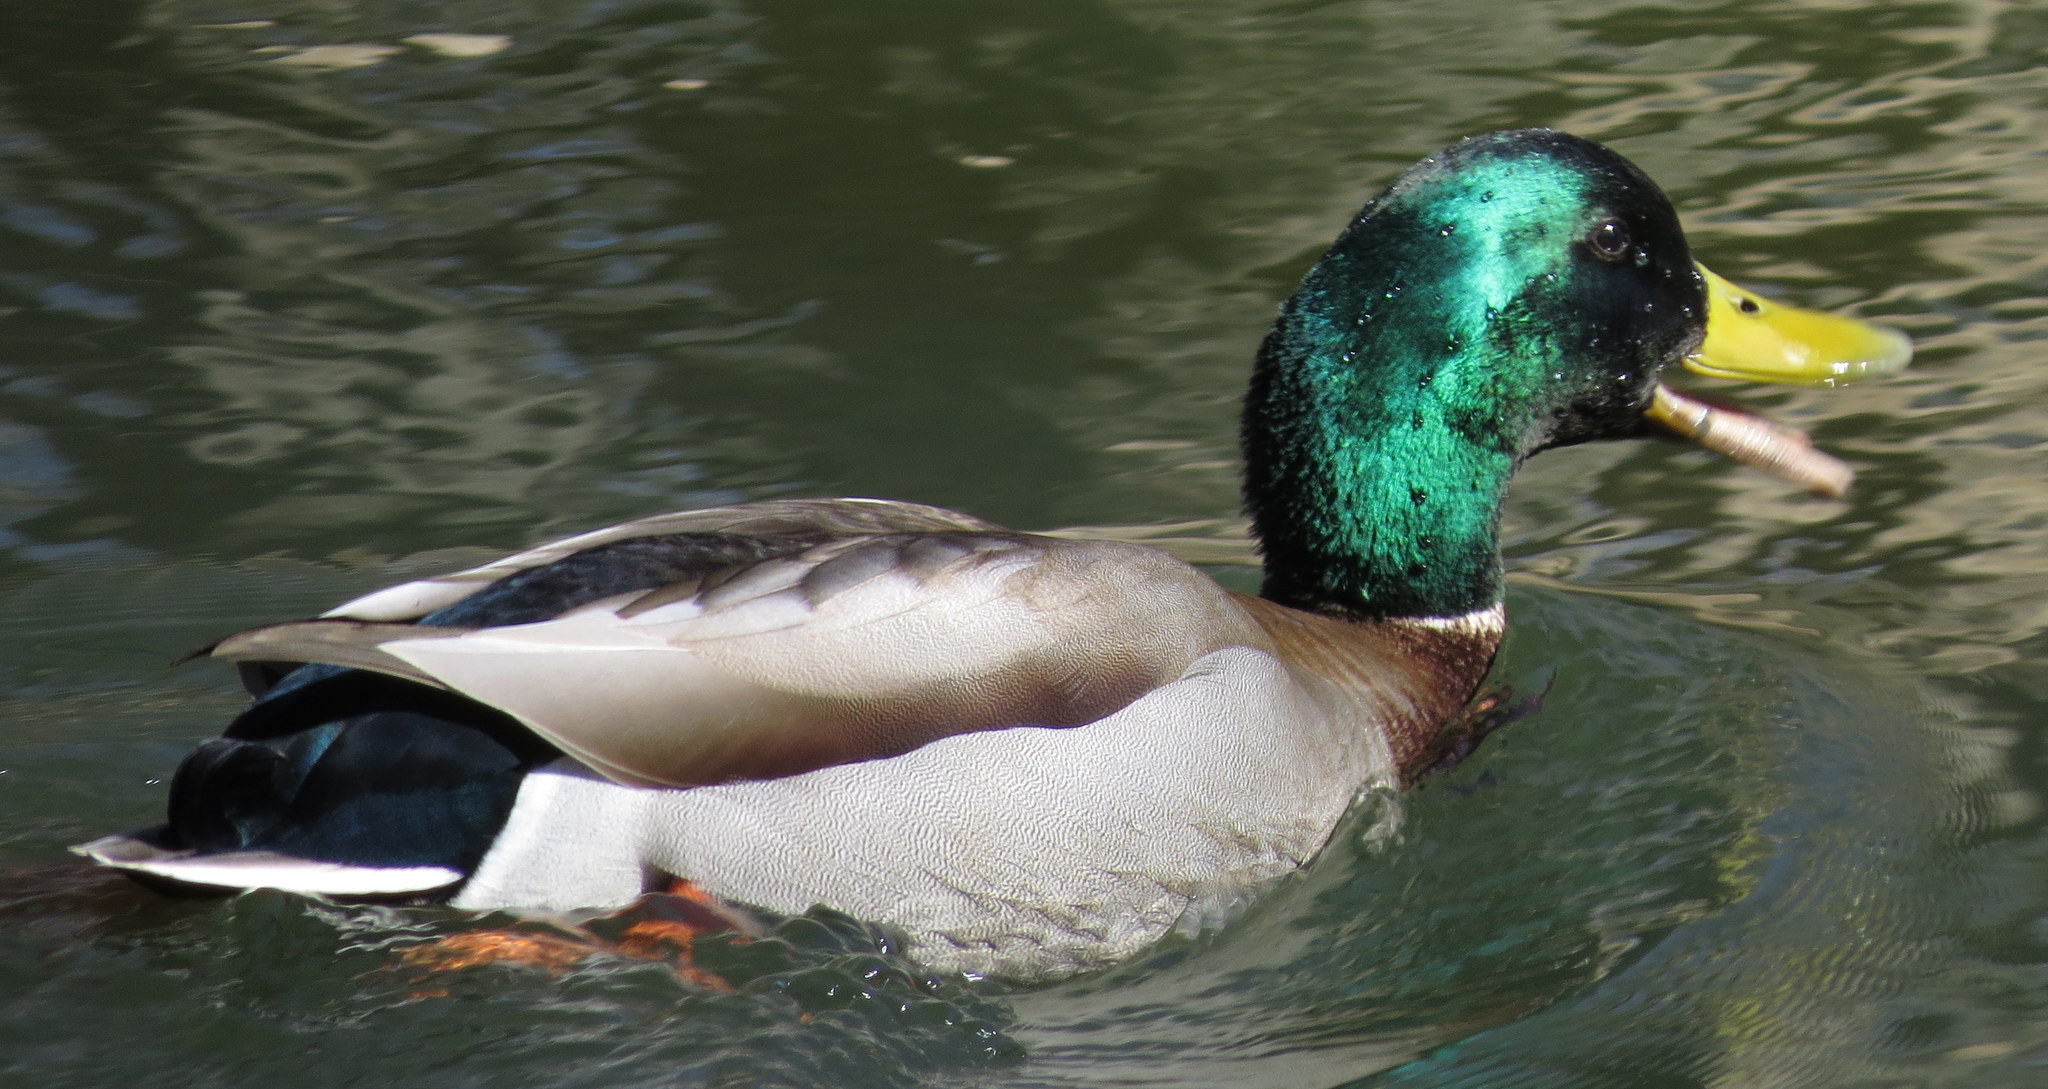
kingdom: Animalia
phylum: Chordata
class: Aves
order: Anseriformes
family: Anatidae
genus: Anas
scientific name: Anas platyrhynchos
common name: Mallard
